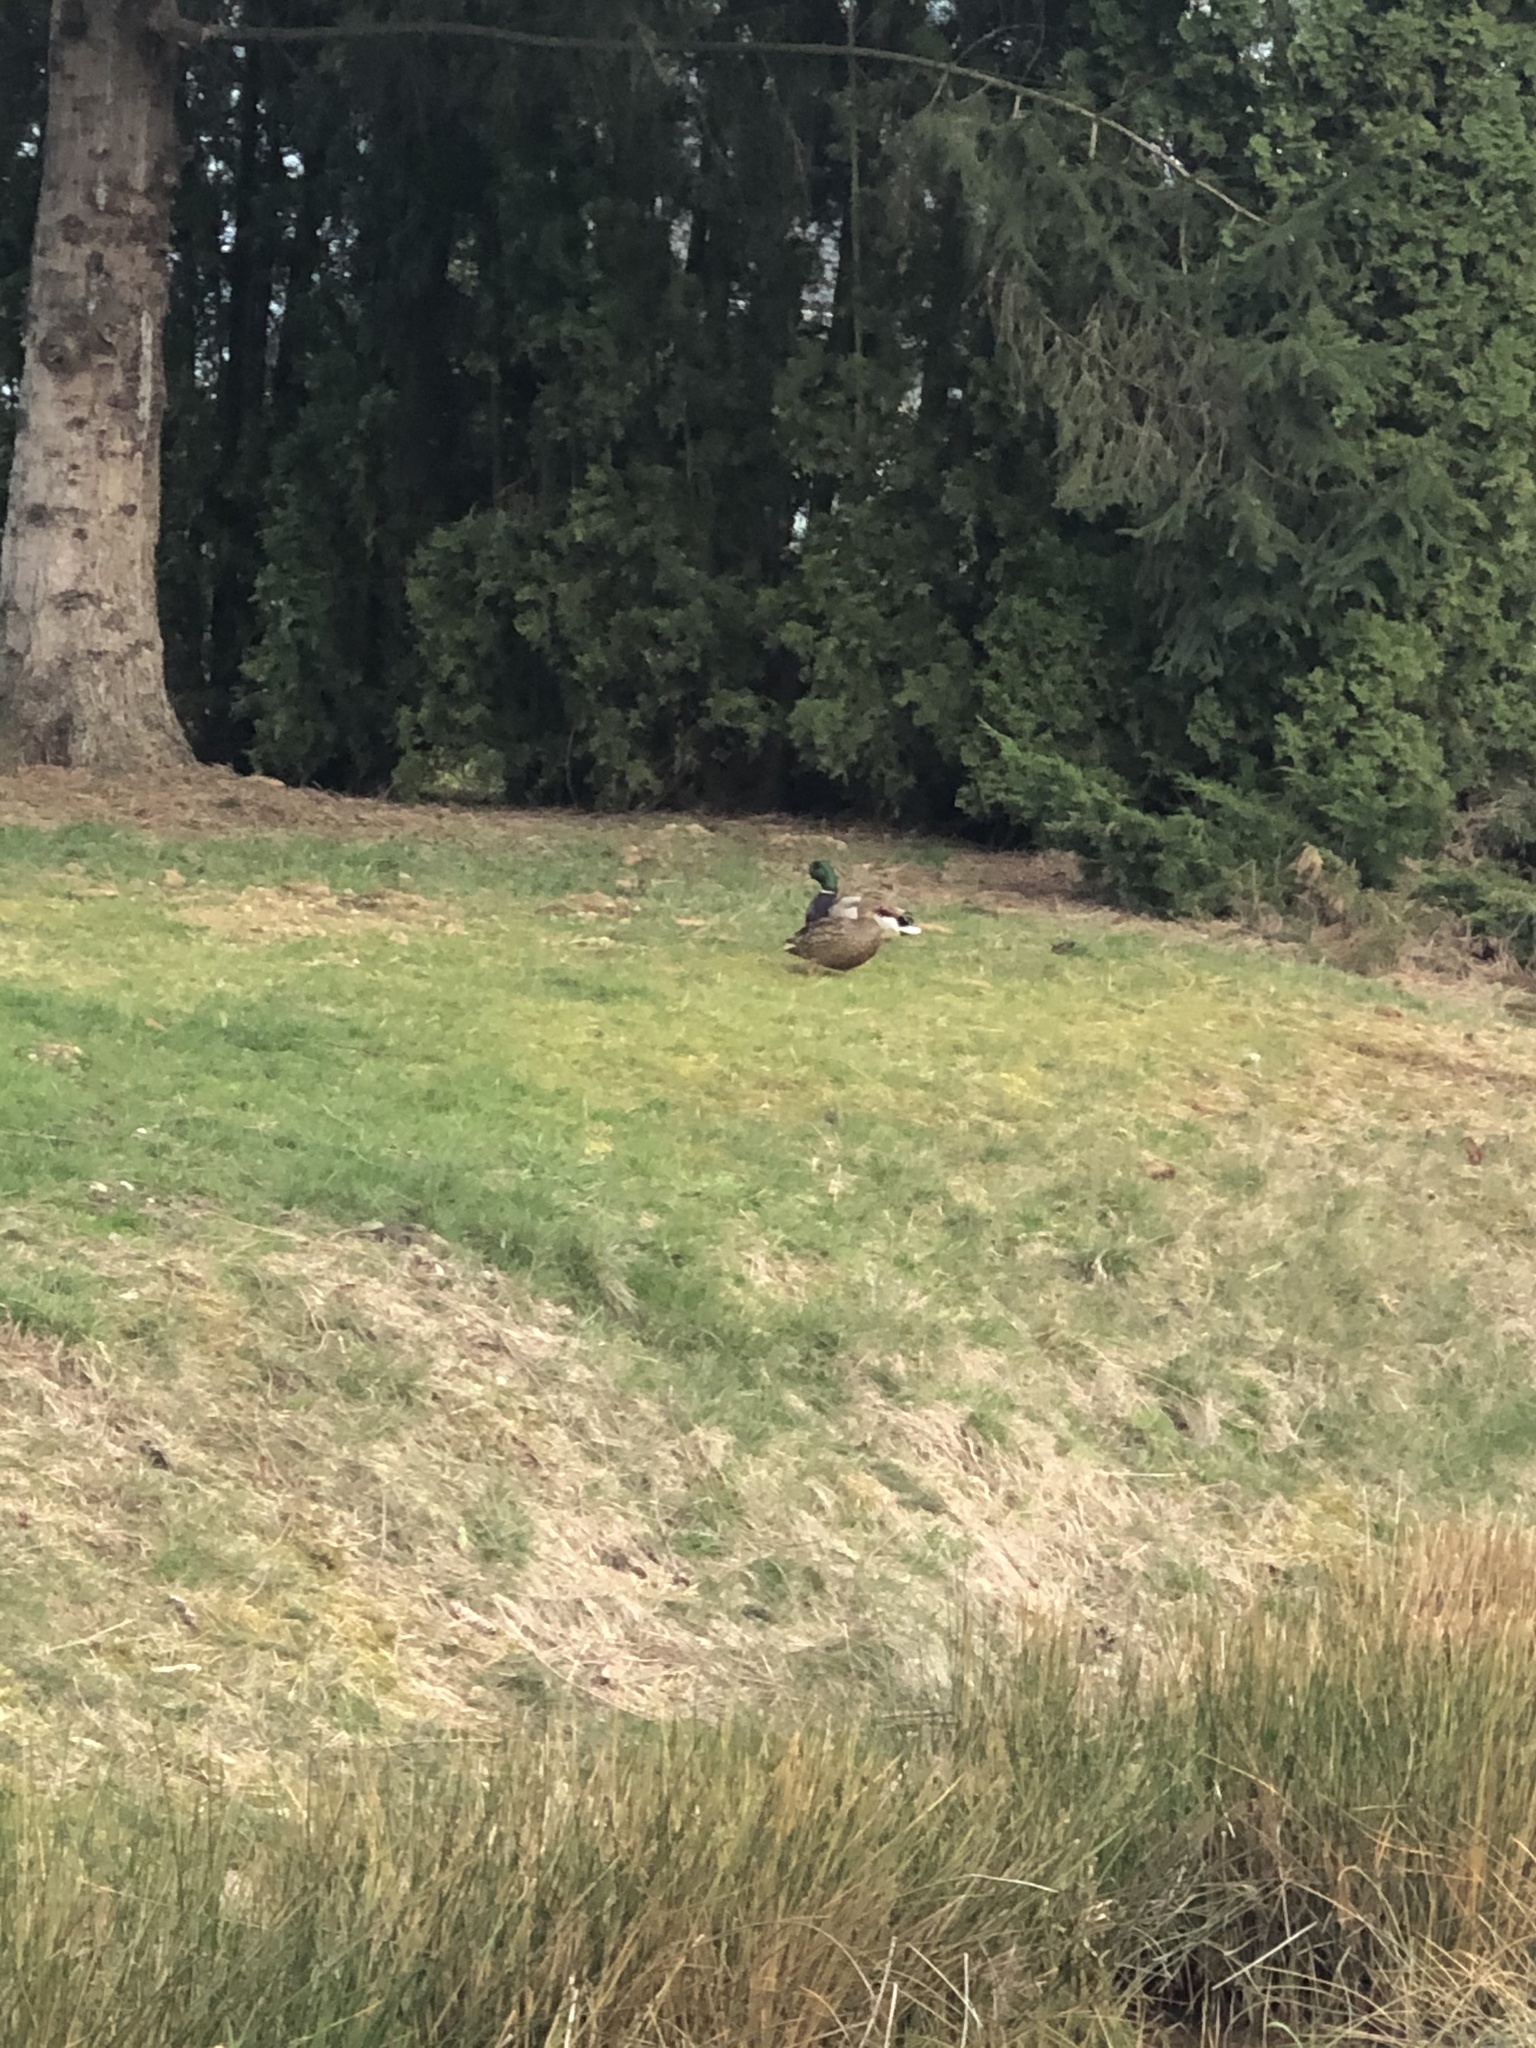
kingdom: Animalia
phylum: Chordata
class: Aves
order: Anseriformes
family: Anatidae
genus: Anas
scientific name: Anas platyrhynchos
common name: Mallard
